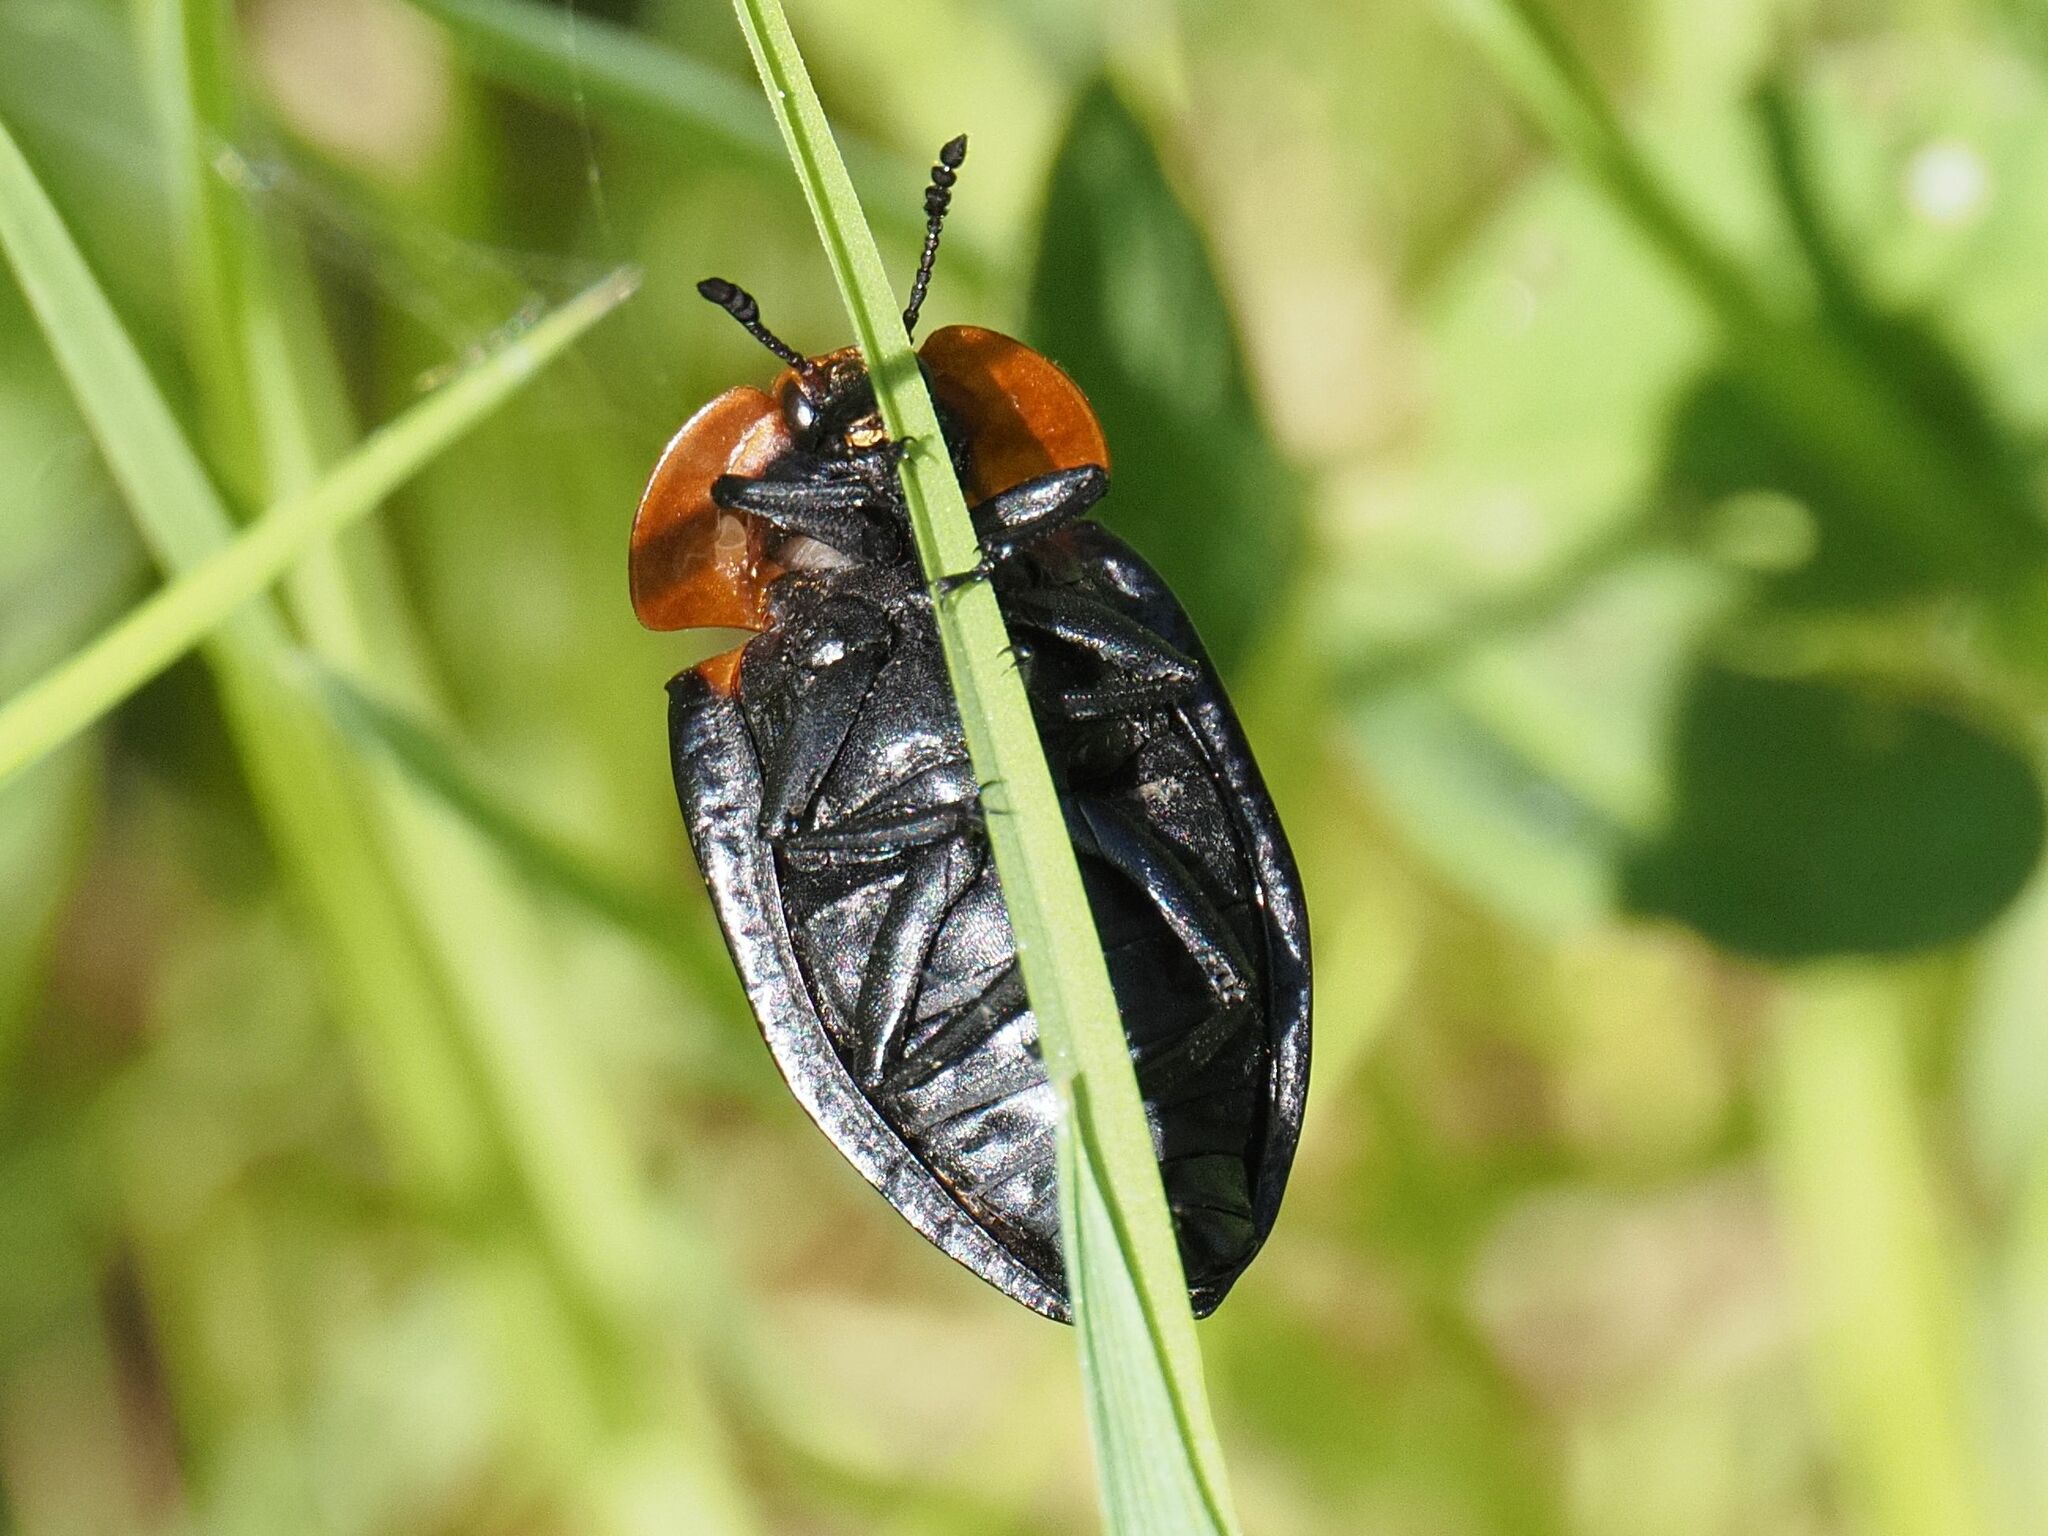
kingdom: Animalia
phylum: Arthropoda
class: Insecta
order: Coleoptera
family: Staphylinidae
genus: Oiceoptoma
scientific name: Oiceoptoma thoracicum
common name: Red-breasted carrion beetle
